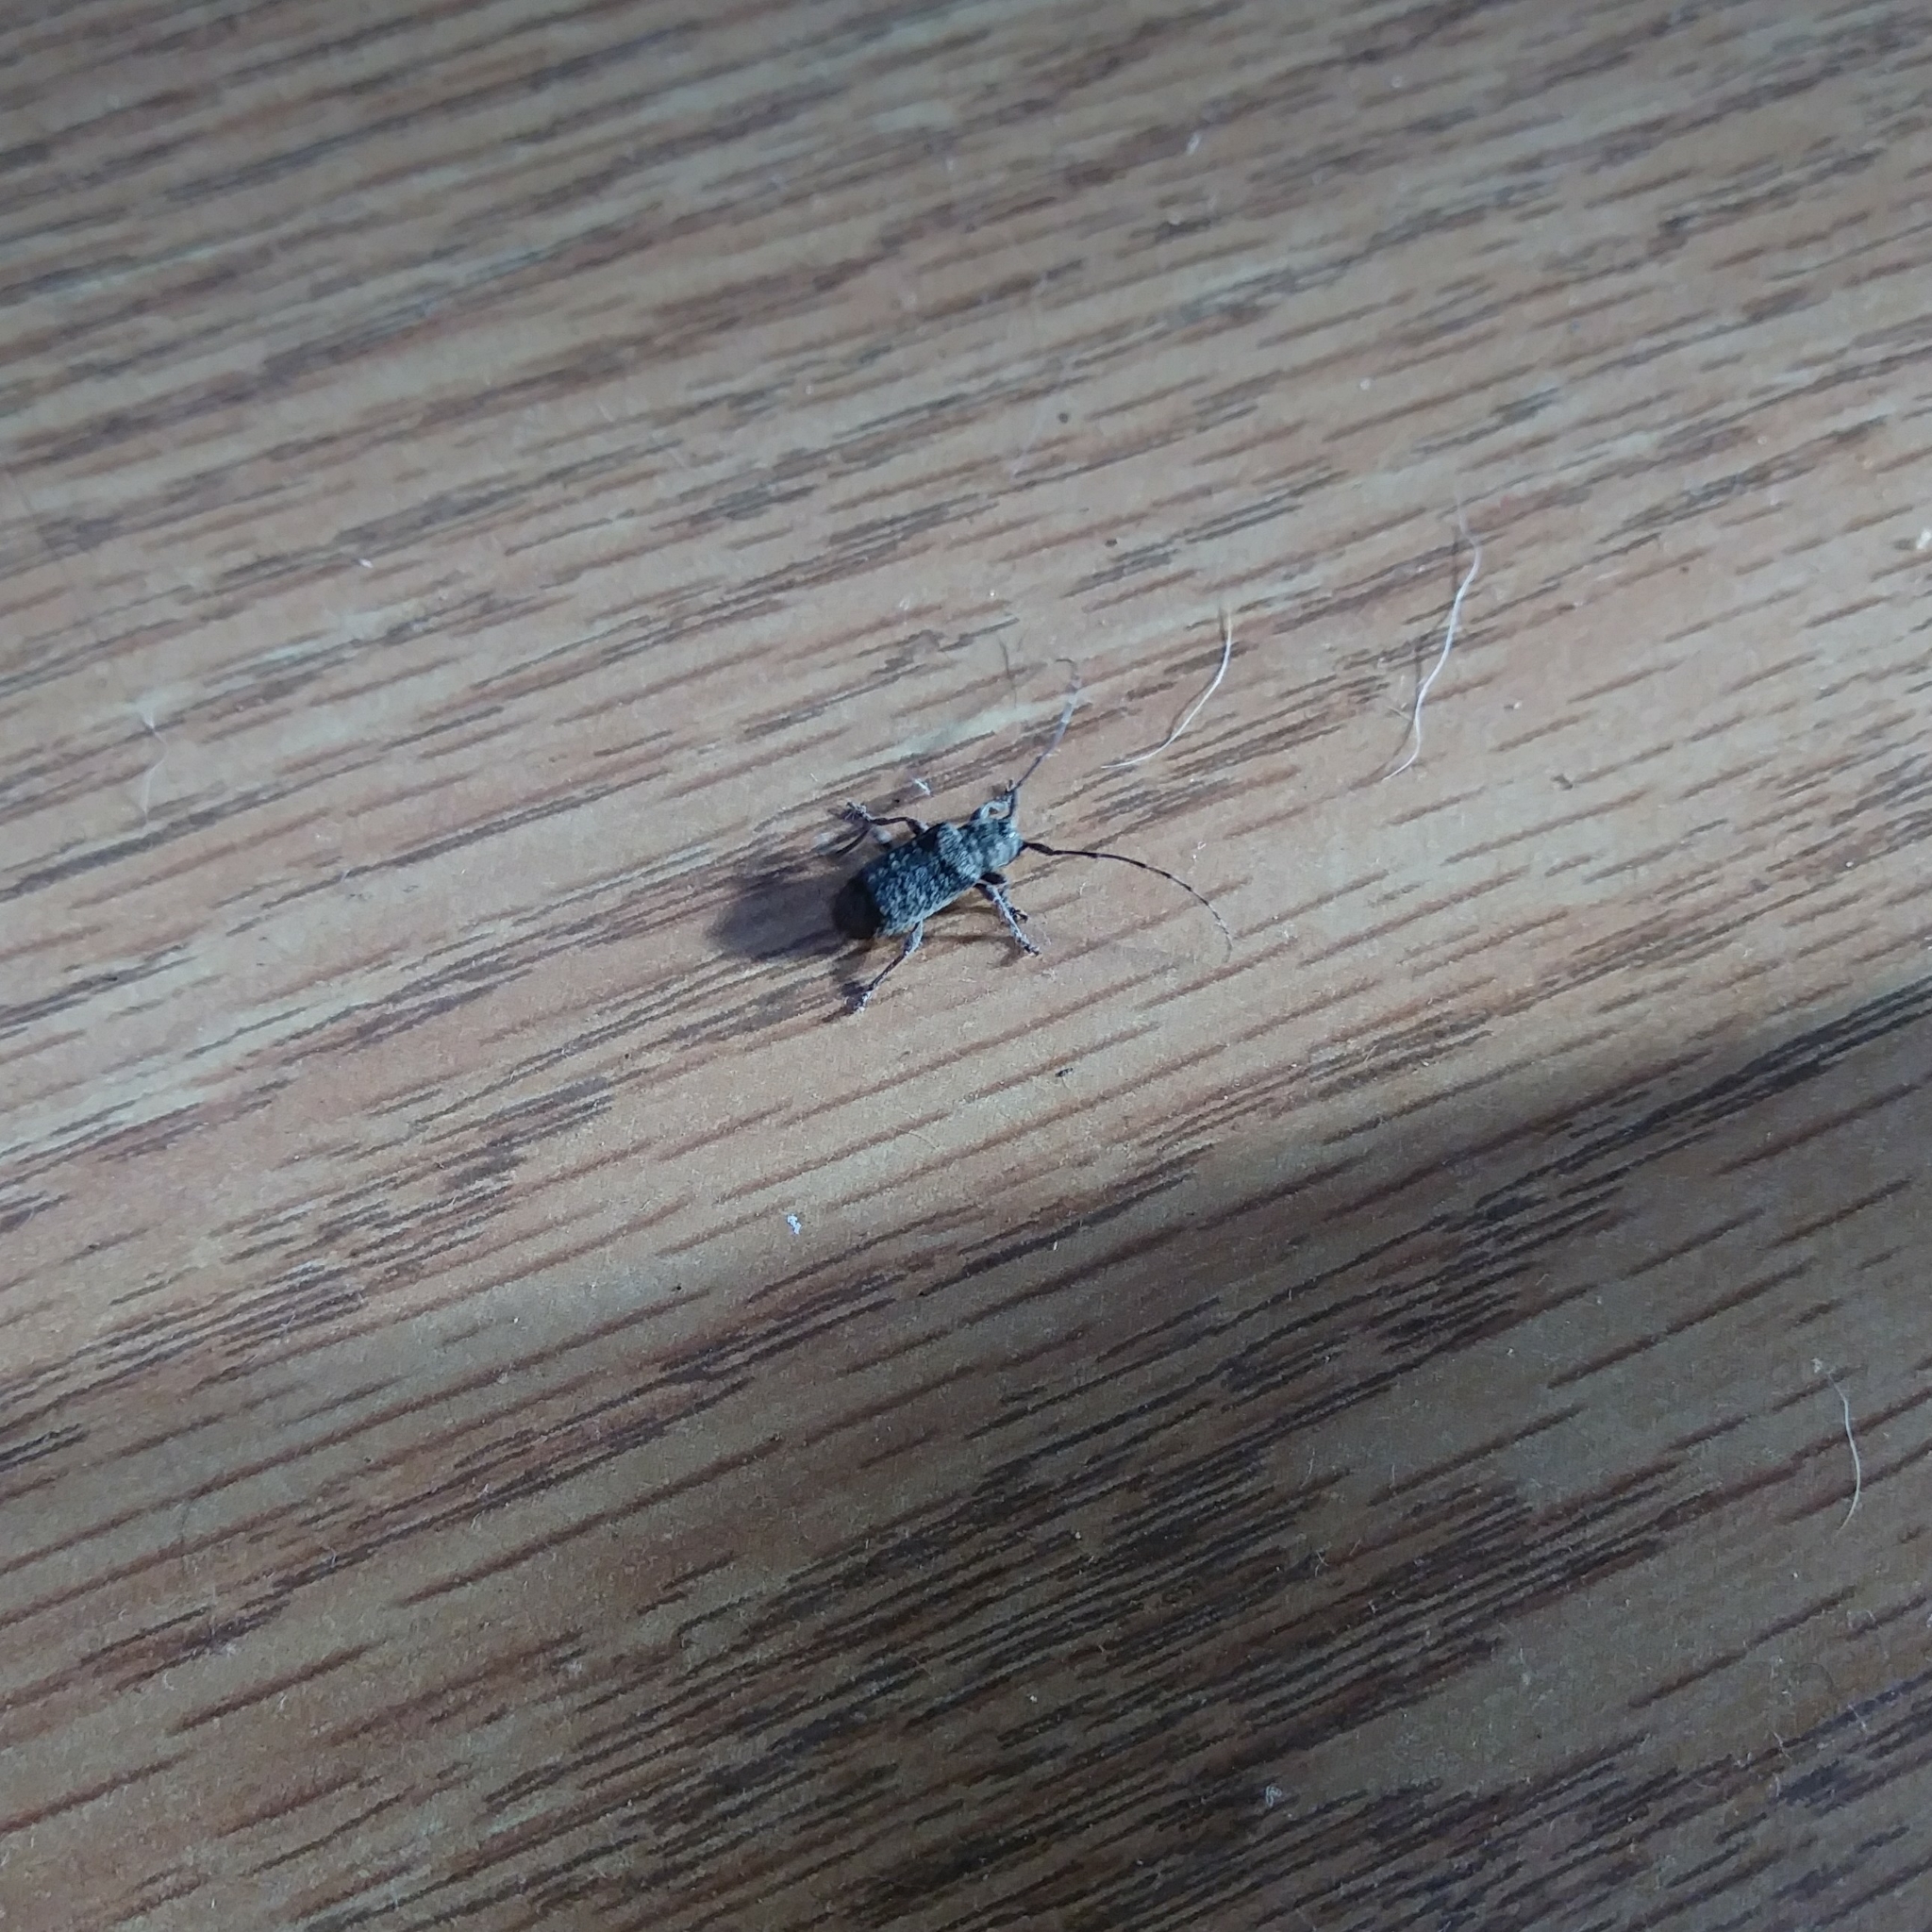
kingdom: Animalia
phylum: Arthropoda
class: Insecta
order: Coleoptera
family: Cerambycidae
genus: Ecyrus
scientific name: Ecyrus dasycerus
